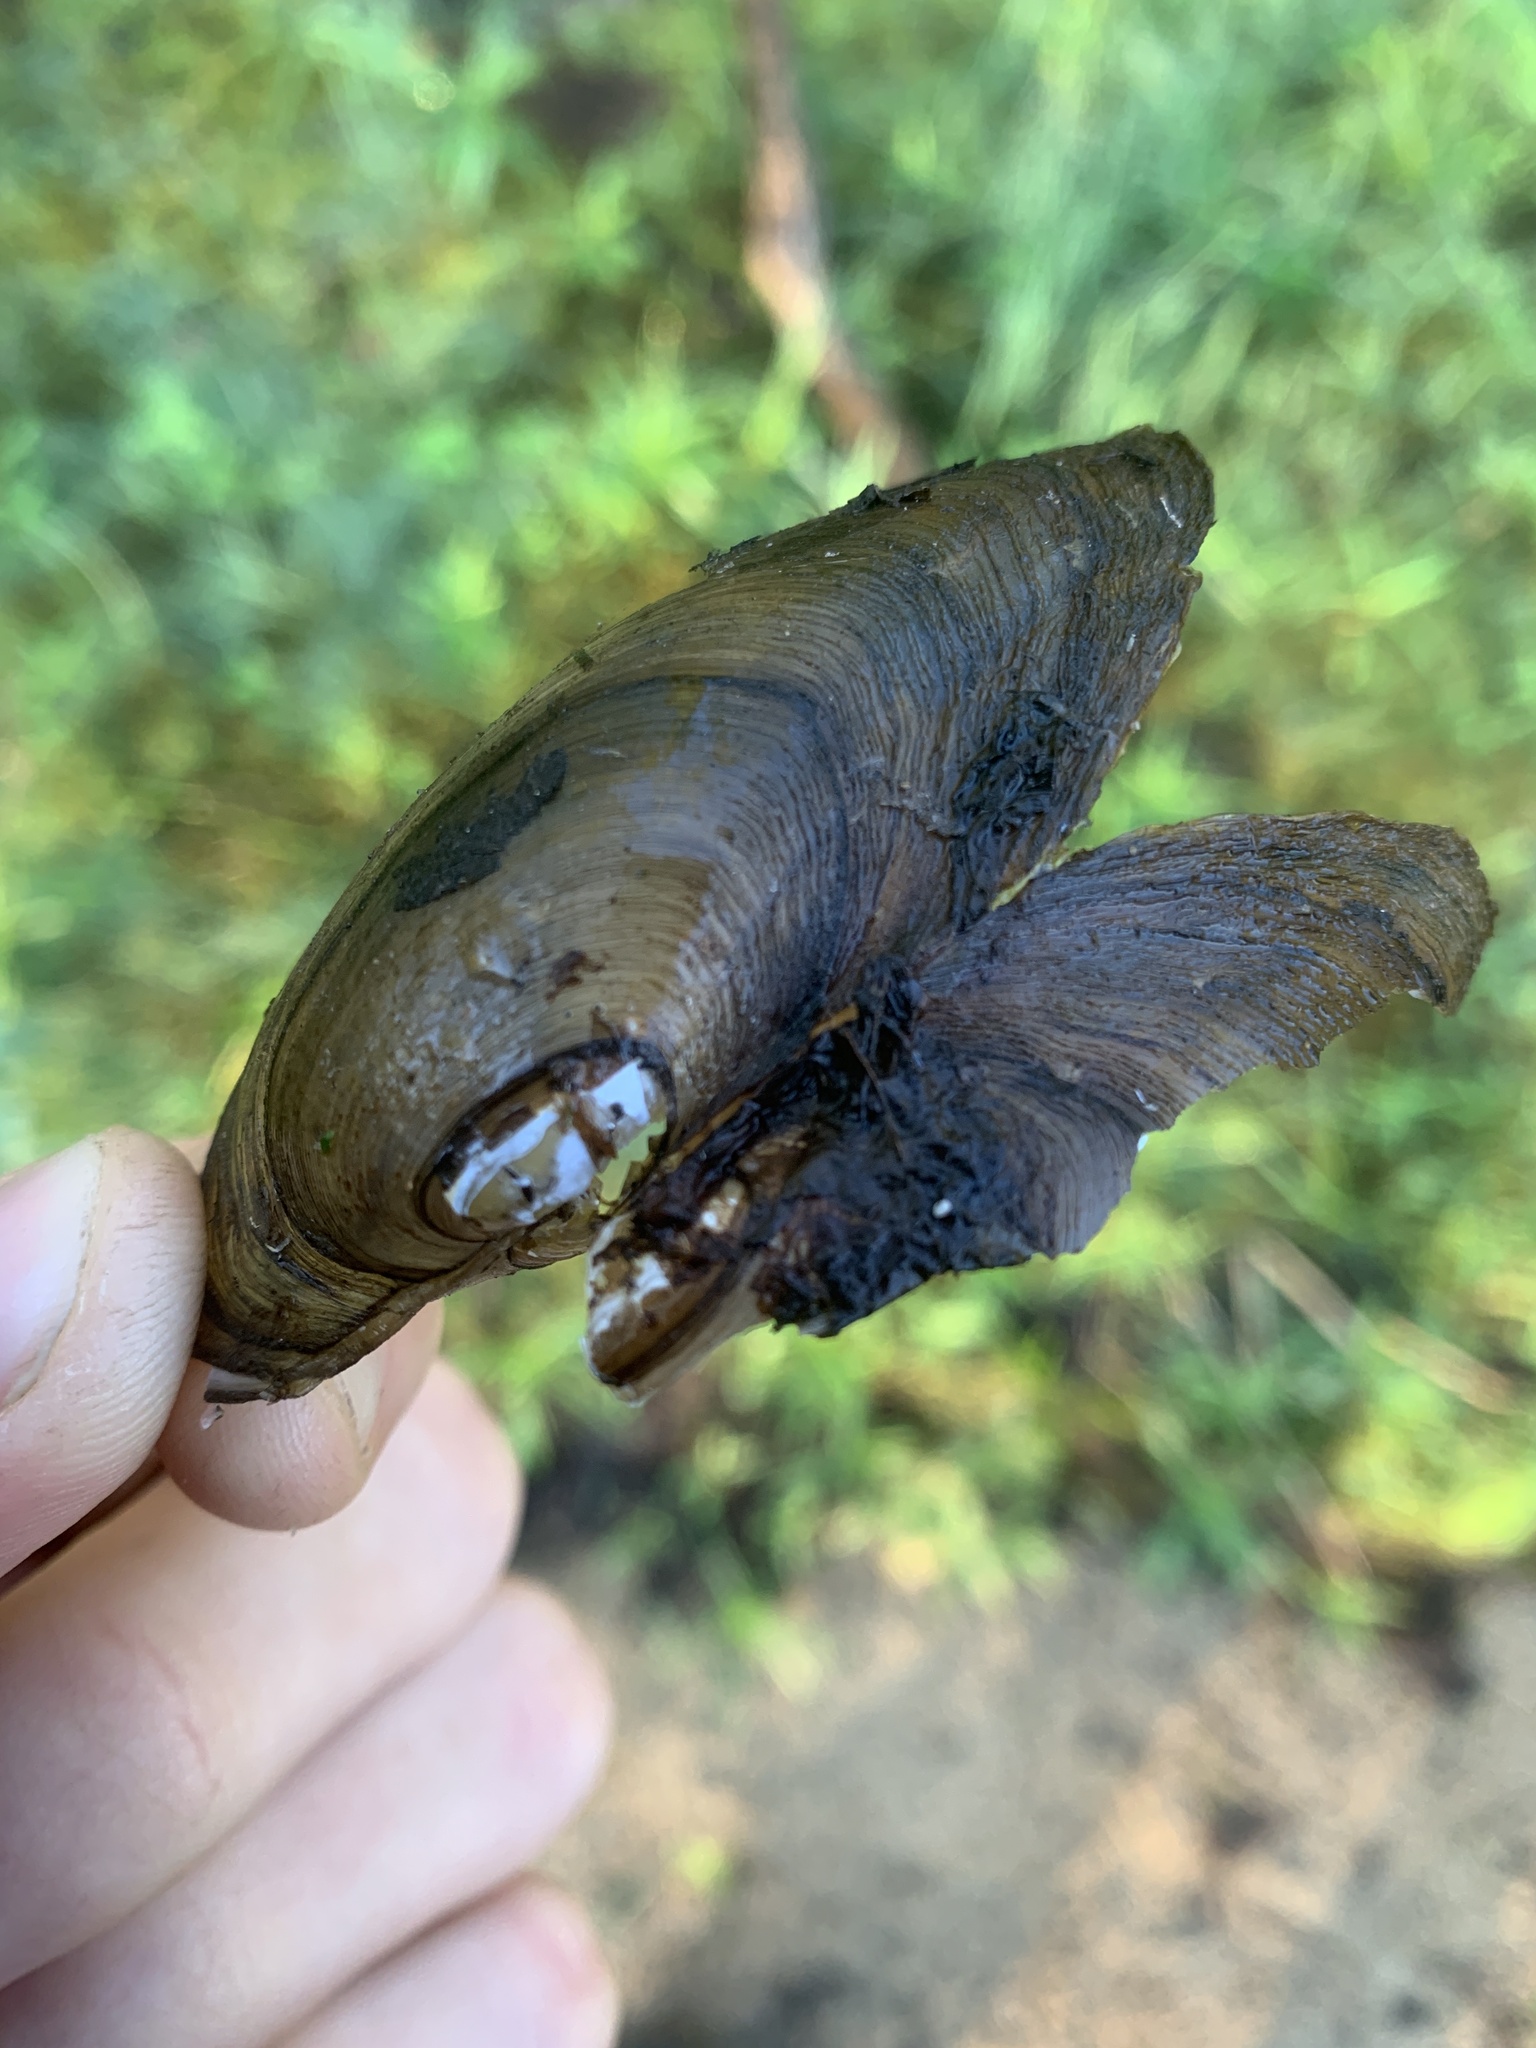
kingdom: Animalia
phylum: Mollusca
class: Bivalvia
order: Unionida
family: Unionidae
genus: Pyganodon
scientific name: Pyganodon grandis
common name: Giant floater
